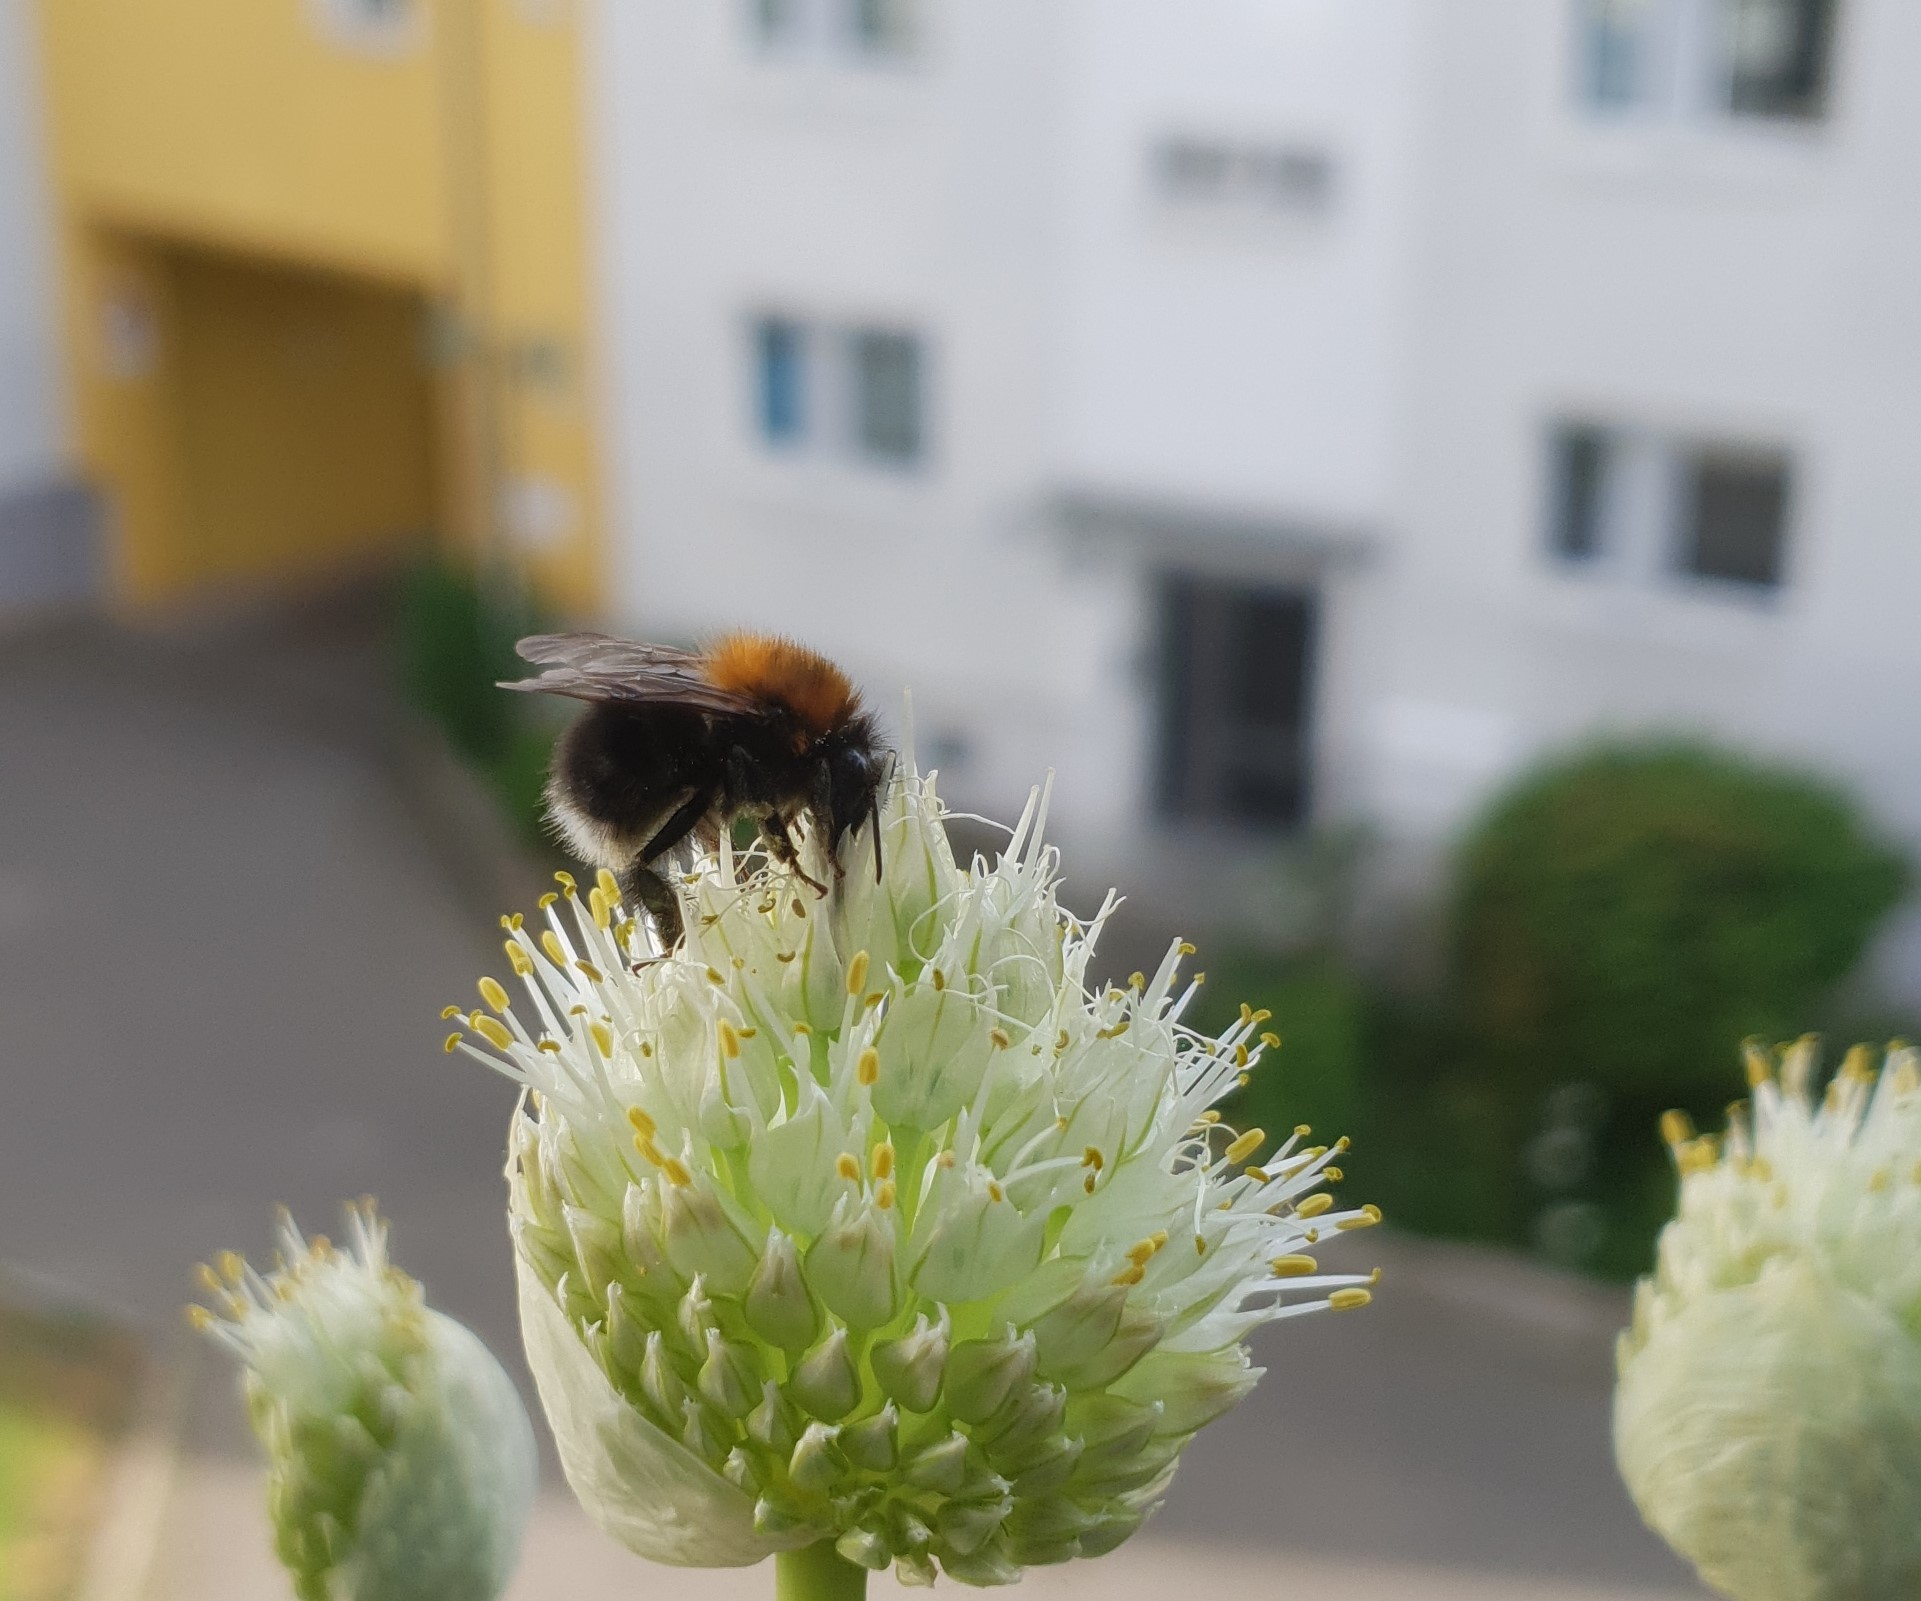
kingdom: Animalia
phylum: Arthropoda
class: Insecta
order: Hymenoptera
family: Apidae
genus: Bombus
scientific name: Bombus hypnorum
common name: New garden bumblebee
